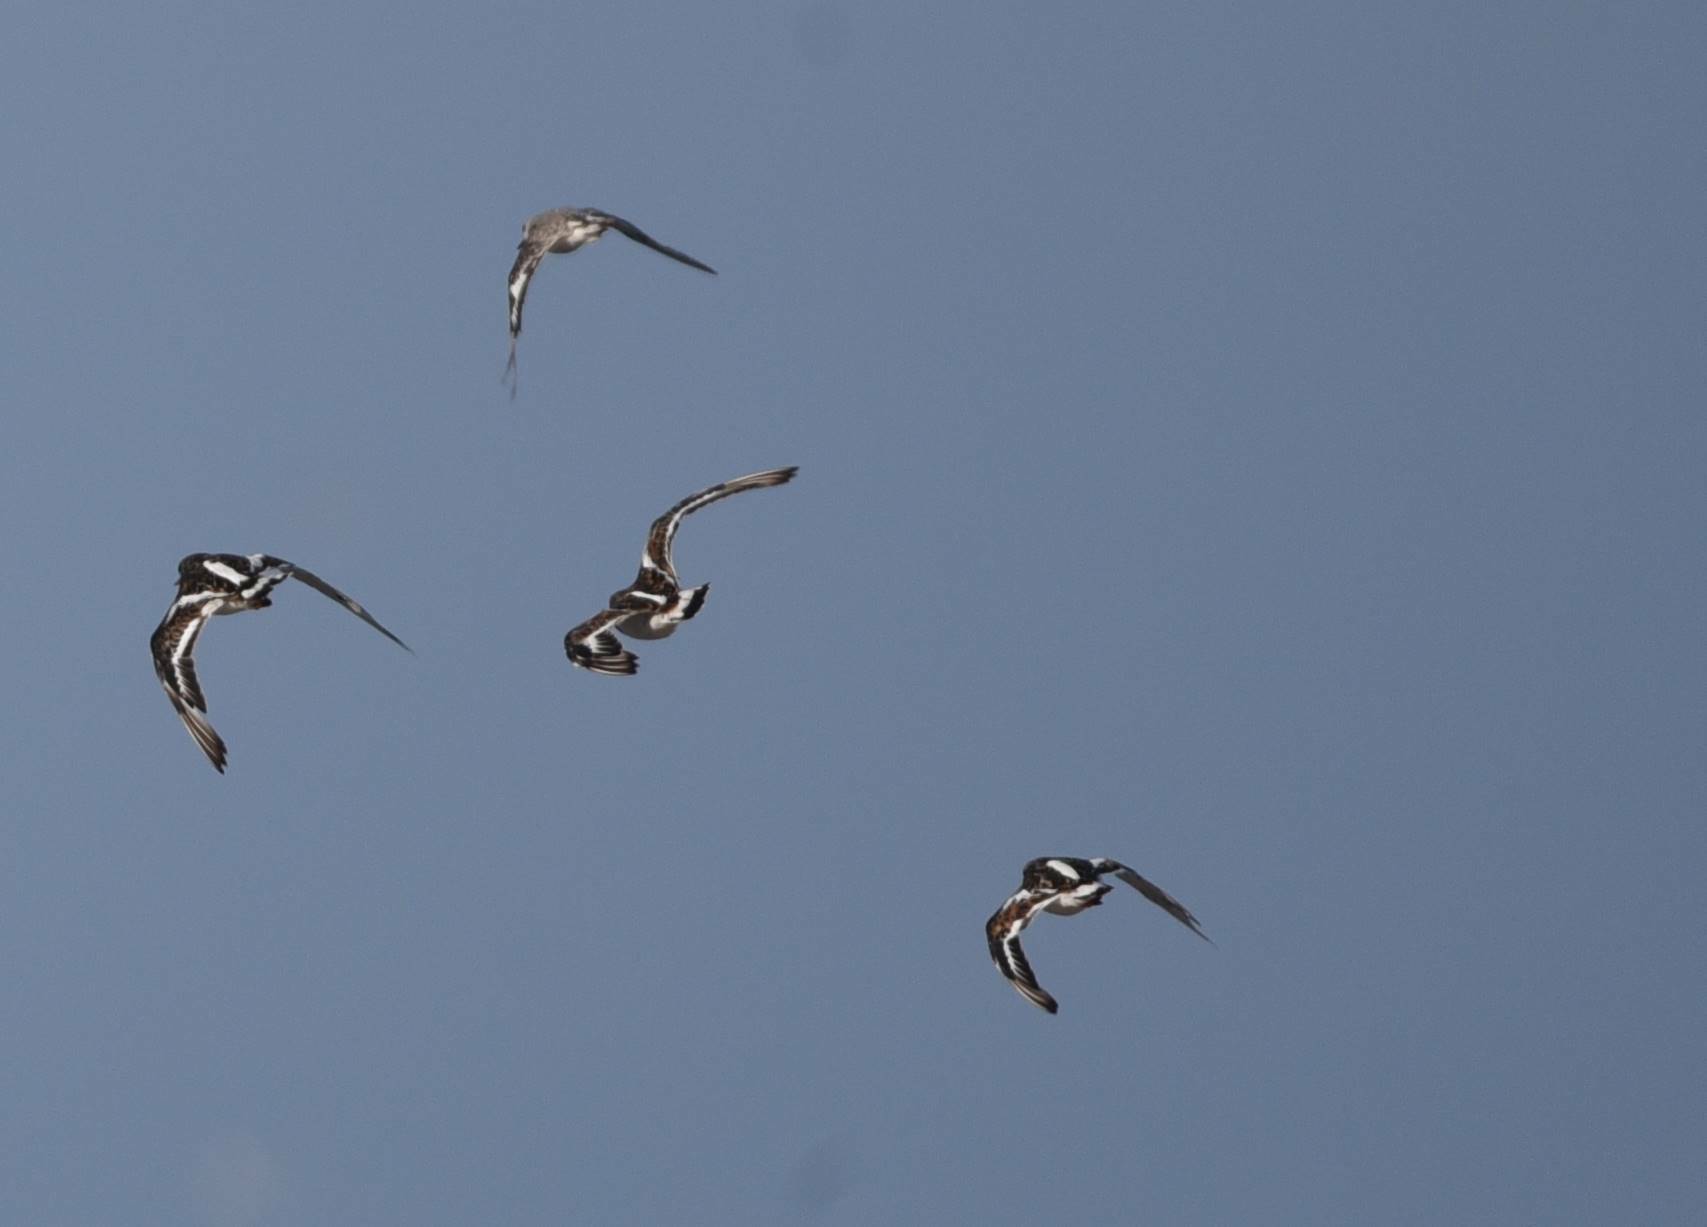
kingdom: Animalia
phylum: Chordata
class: Aves
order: Charadriiformes
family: Scolopacidae
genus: Arenaria
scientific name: Arenaria interpres
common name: Ruddy turnstone
